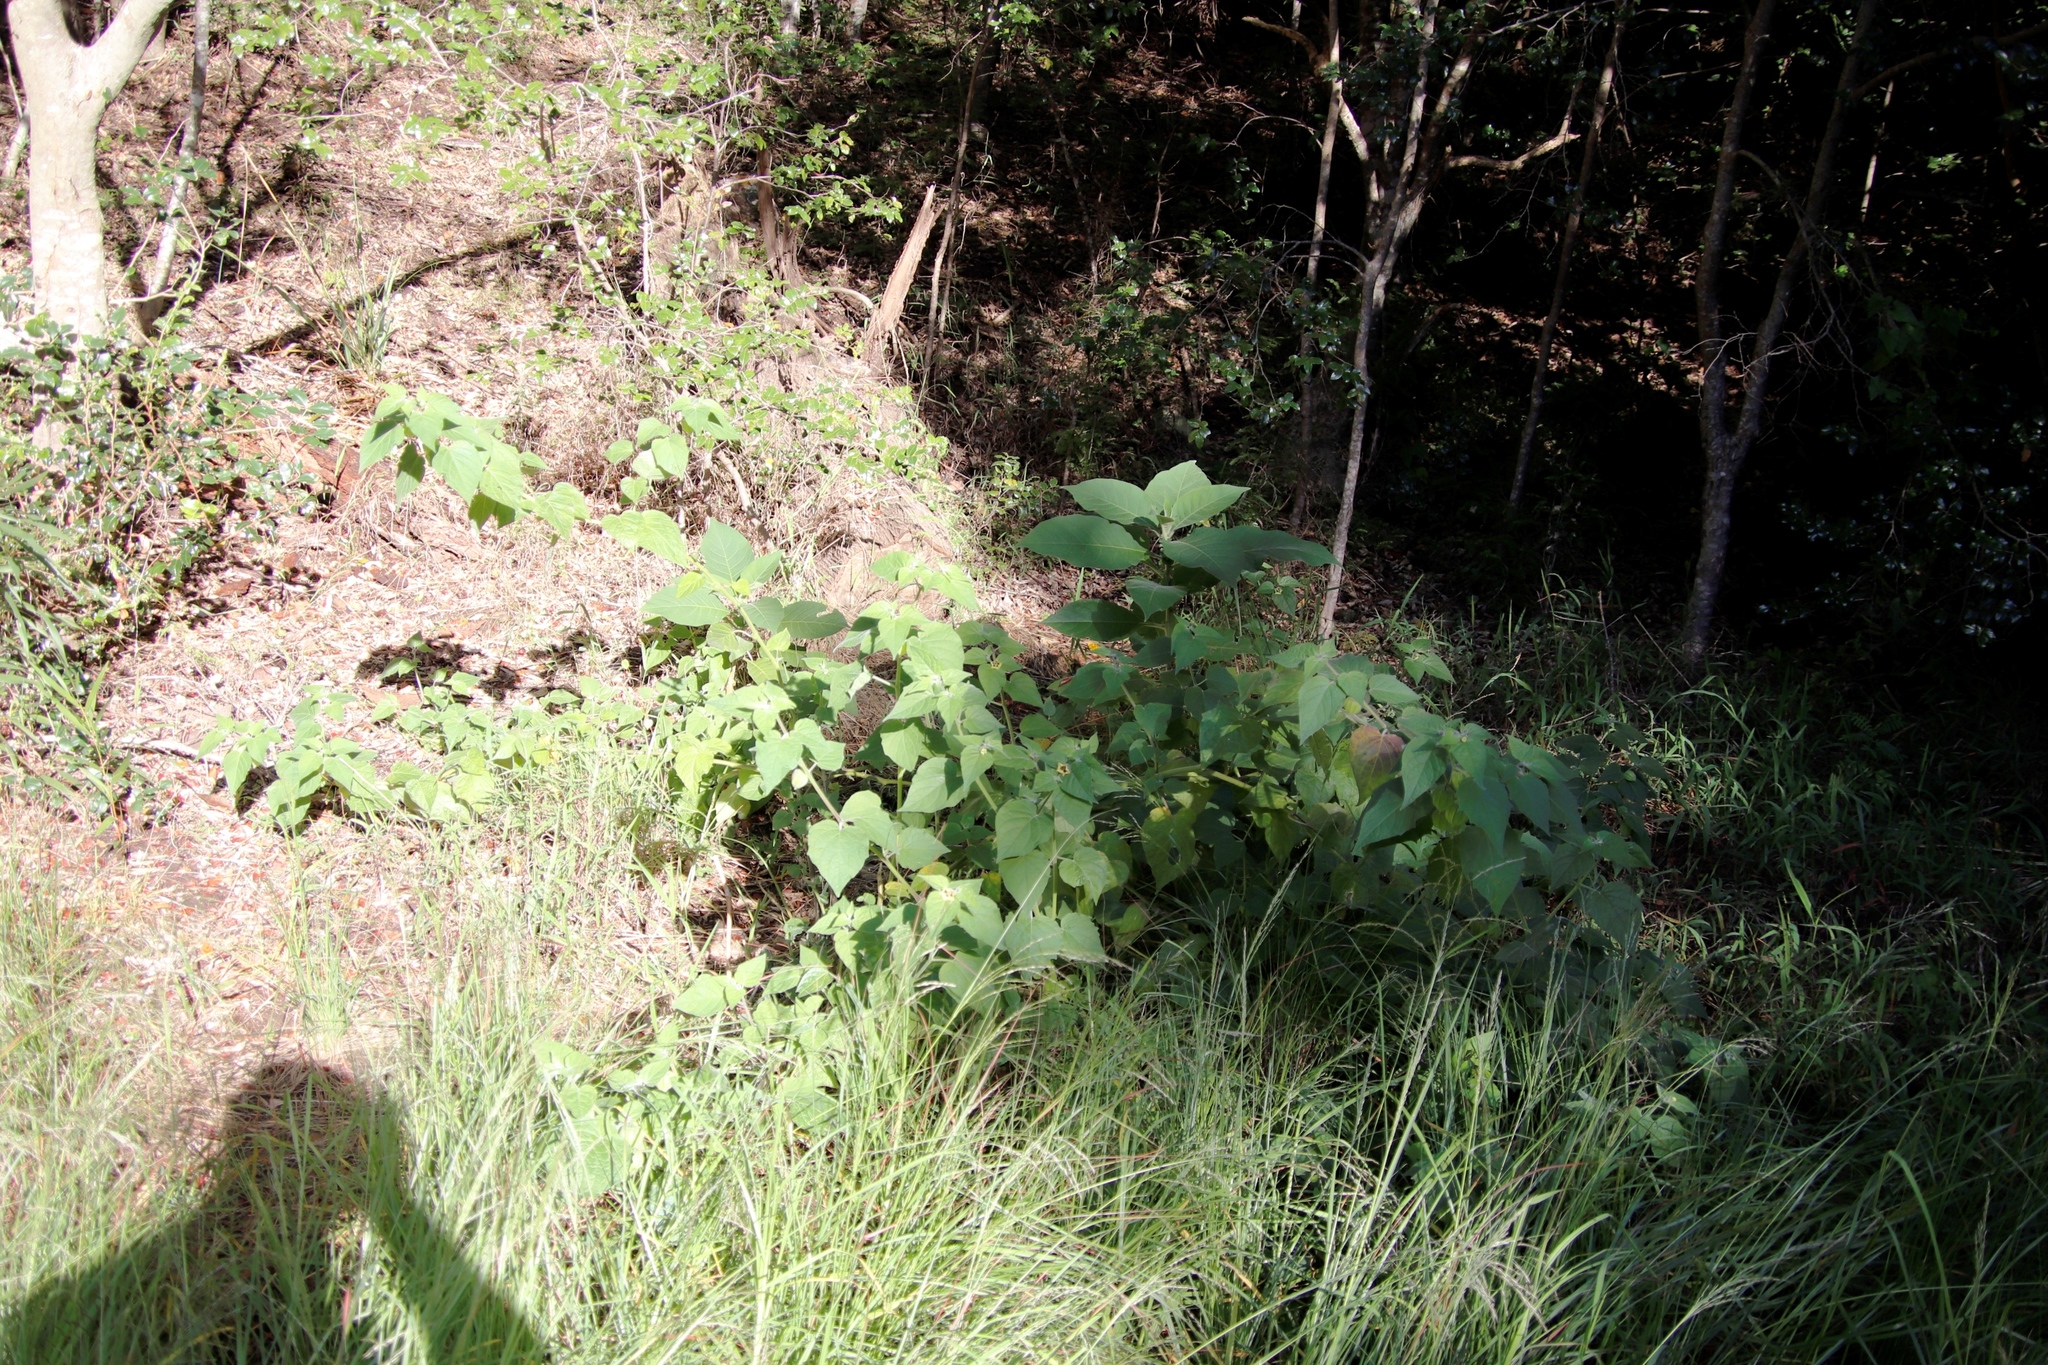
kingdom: Plantae
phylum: Tracheophyta
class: Magnoliopsida
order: Solanales
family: Solanaceae
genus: Solanum
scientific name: Solanum mauritianum
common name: Earleaf nightshade
